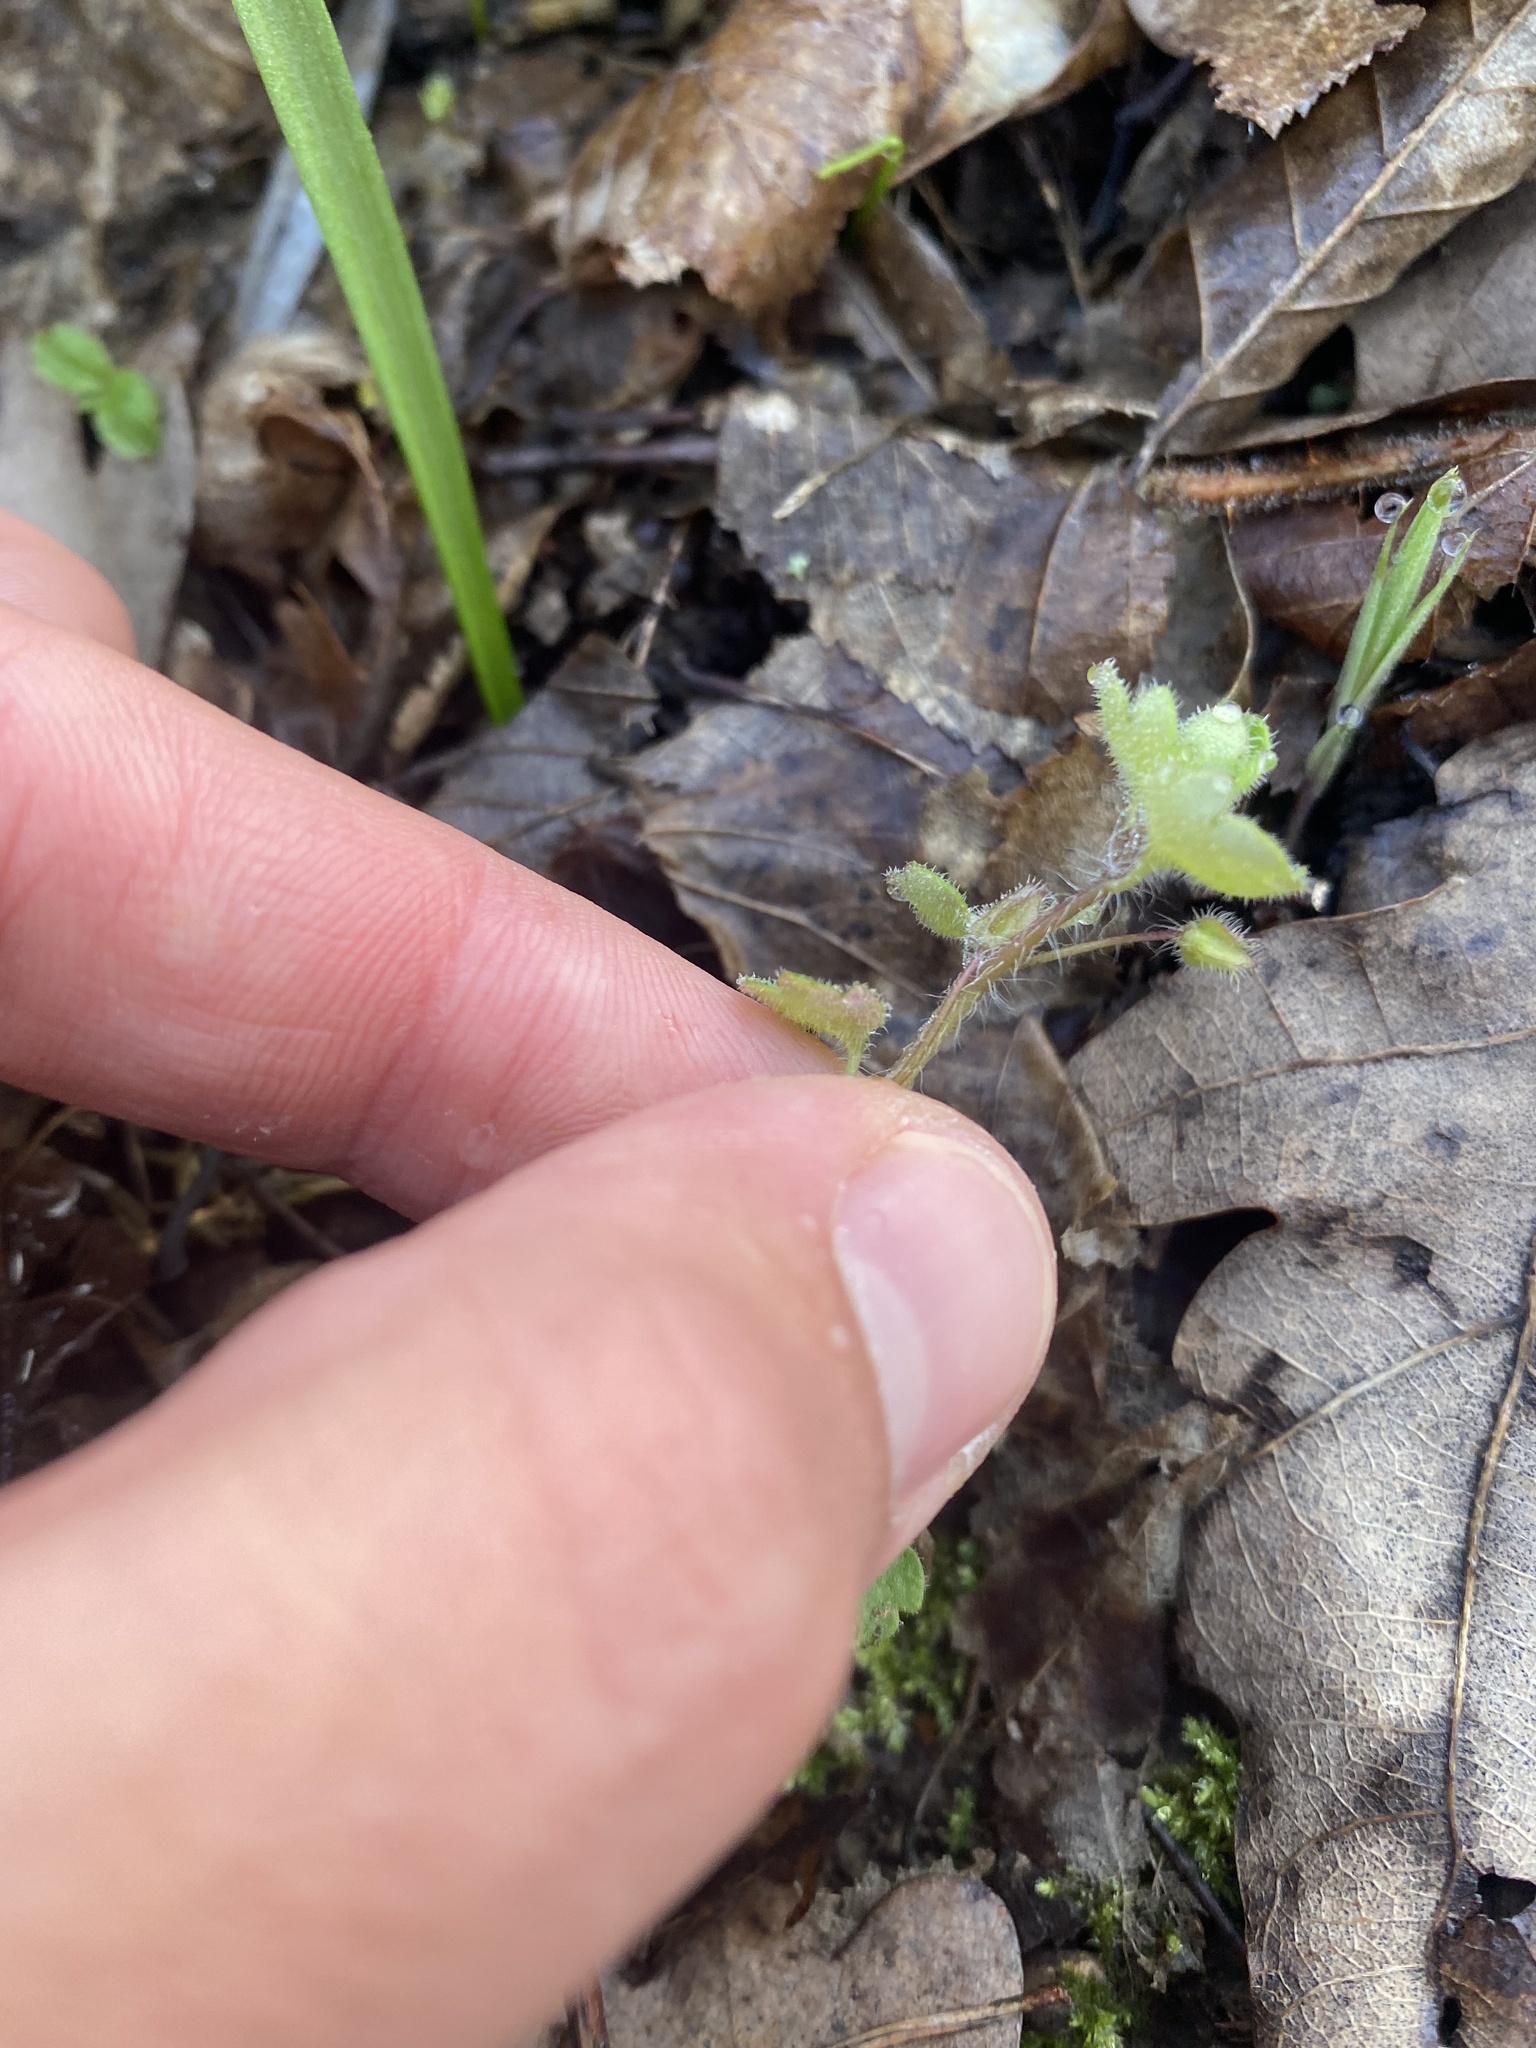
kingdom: Plantae
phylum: Tracheophyta
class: Magnoliopsida
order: Lamiales
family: Plantaginaceae
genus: Veronica
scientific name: Veronica sublobata
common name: False ivy-leaved speedwell
